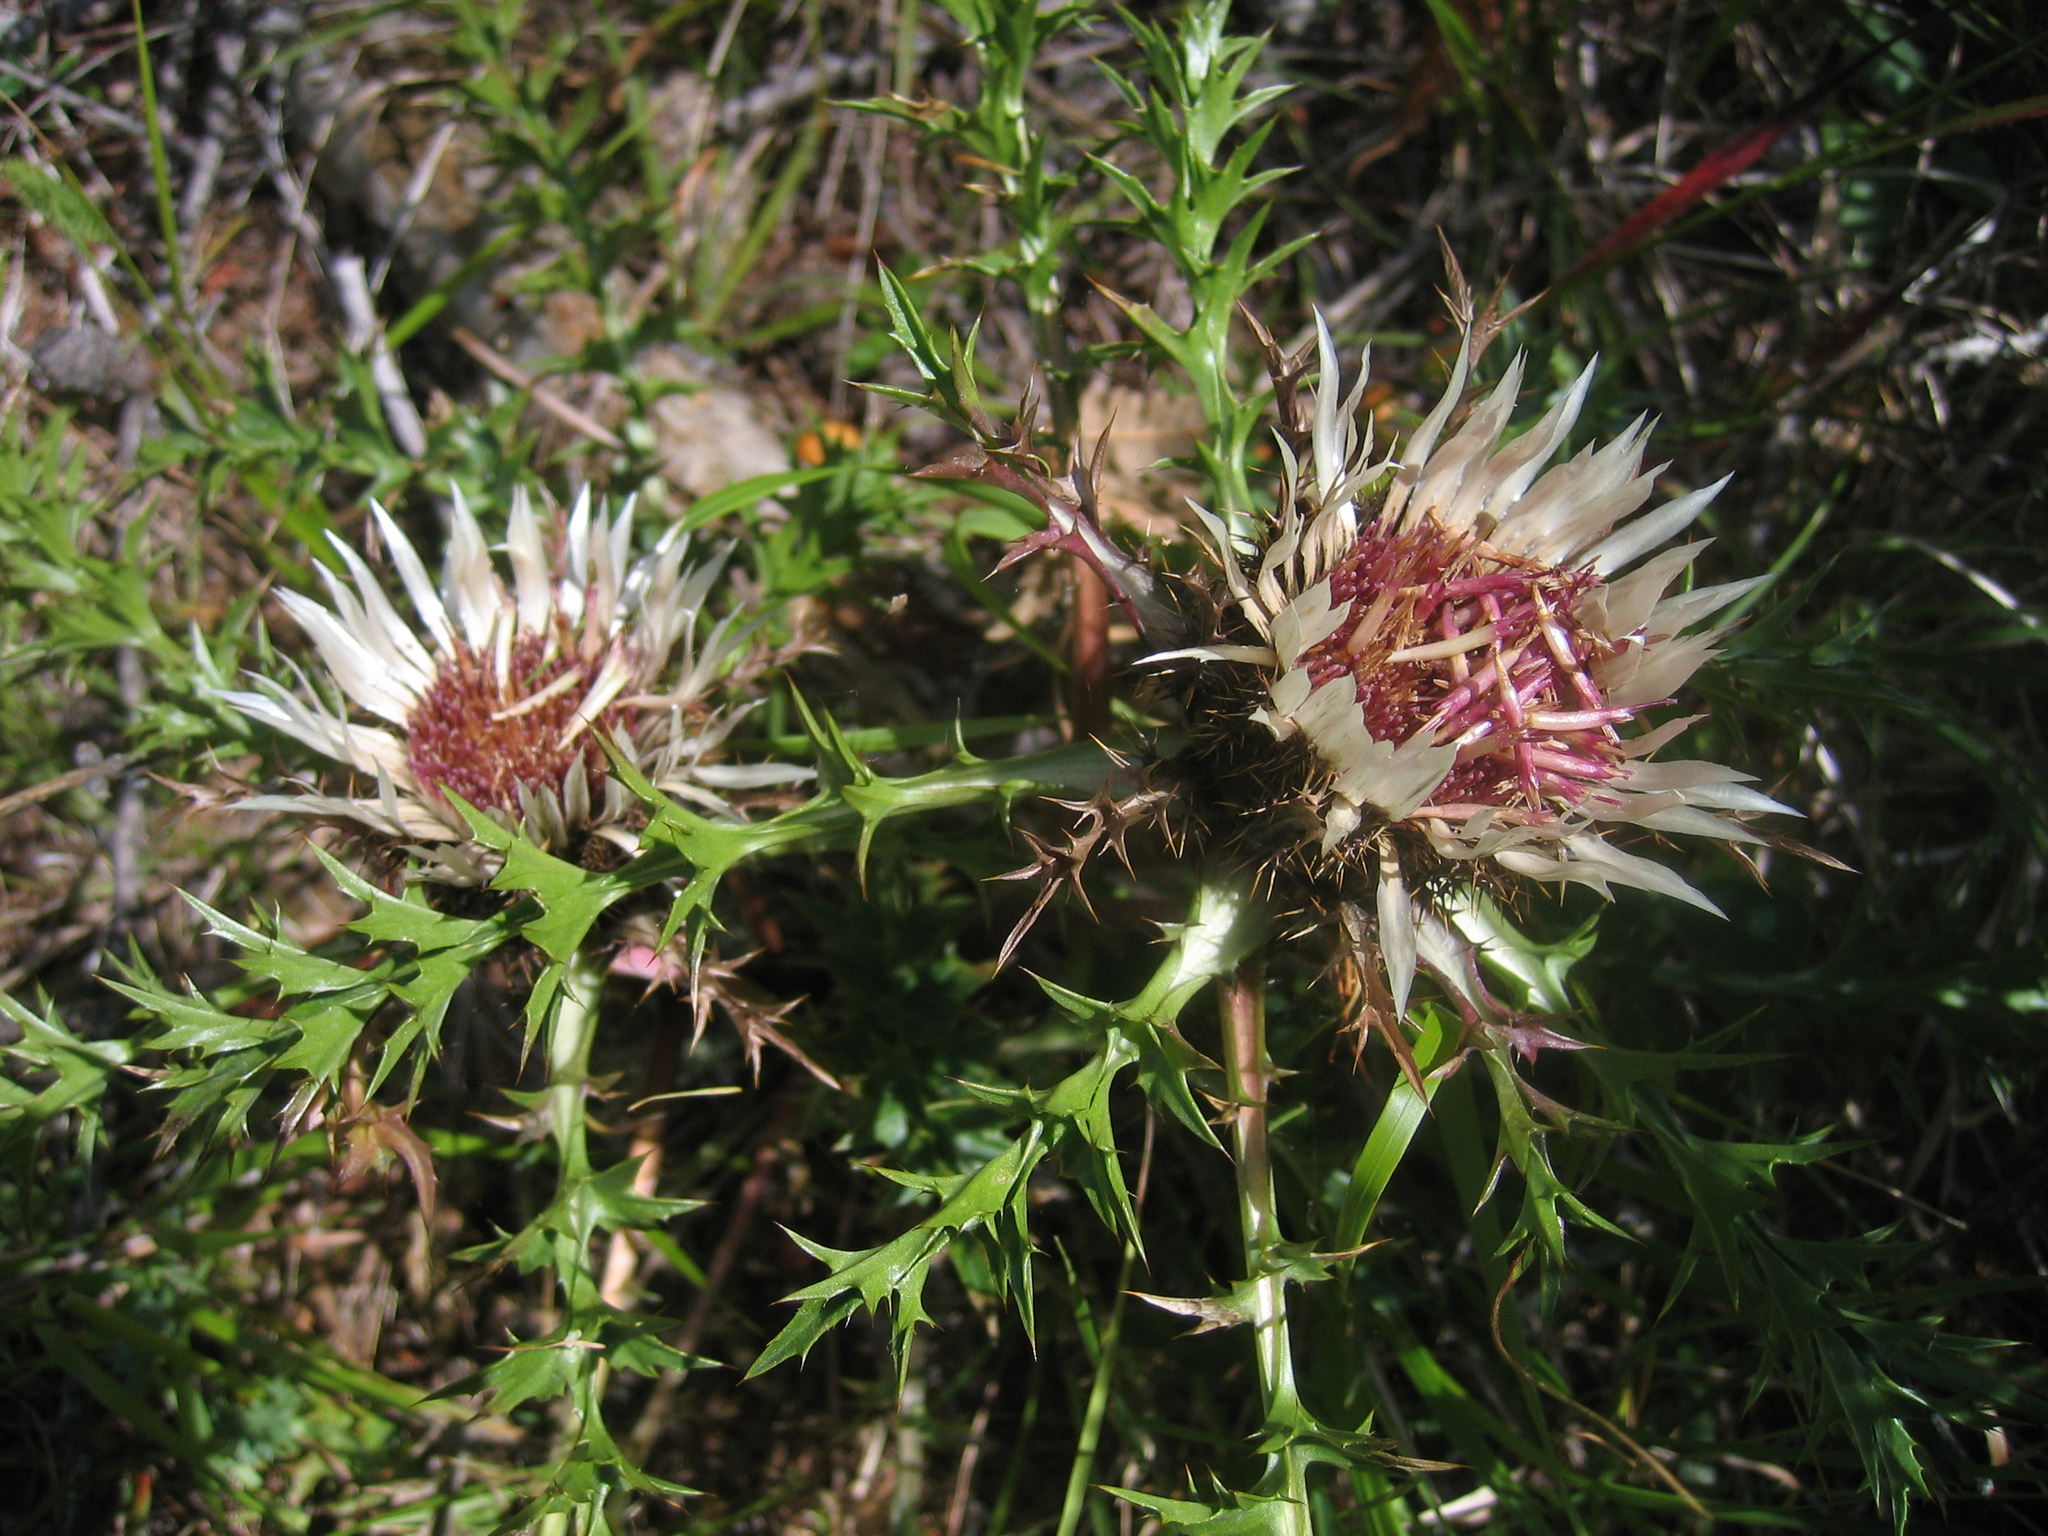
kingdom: Plantae
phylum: Tracheophyta
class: Magnoliopsida
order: Asterales
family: Asteraceae
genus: Carlina
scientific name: Carlina acaulis
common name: Stemless carline thistle
